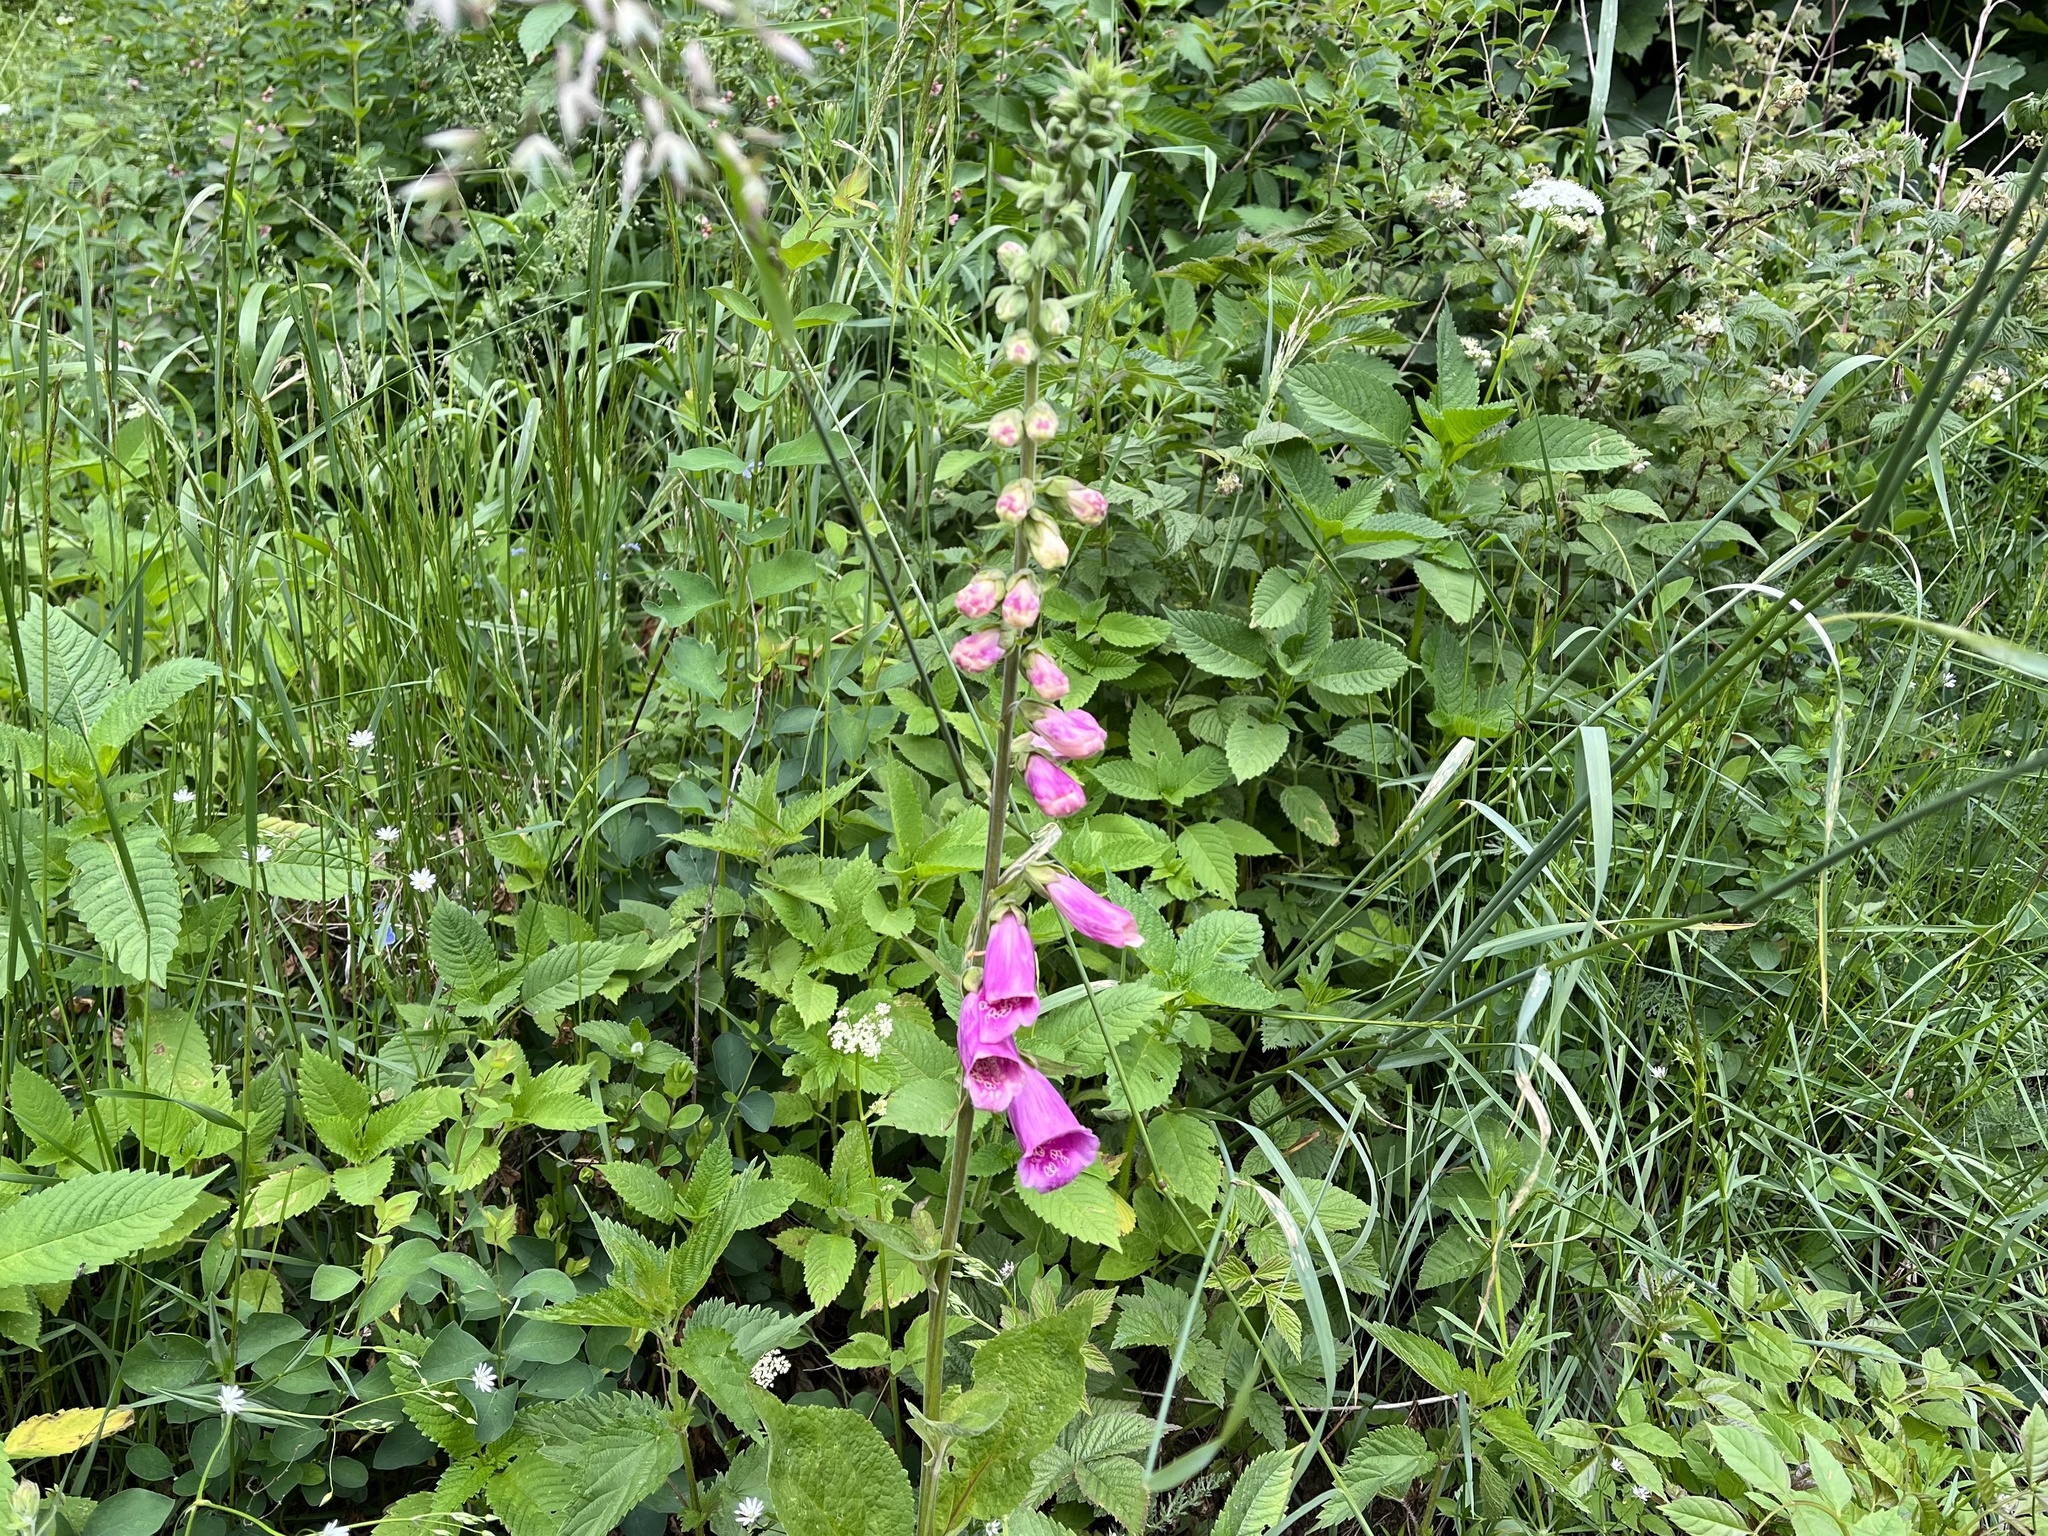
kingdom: Plantae
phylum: Tracheophyta
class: Magnoliopsida
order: Lamiales
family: Plantaginaceae
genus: Digitalis
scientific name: Digitalis purpurea
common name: Foxglove
